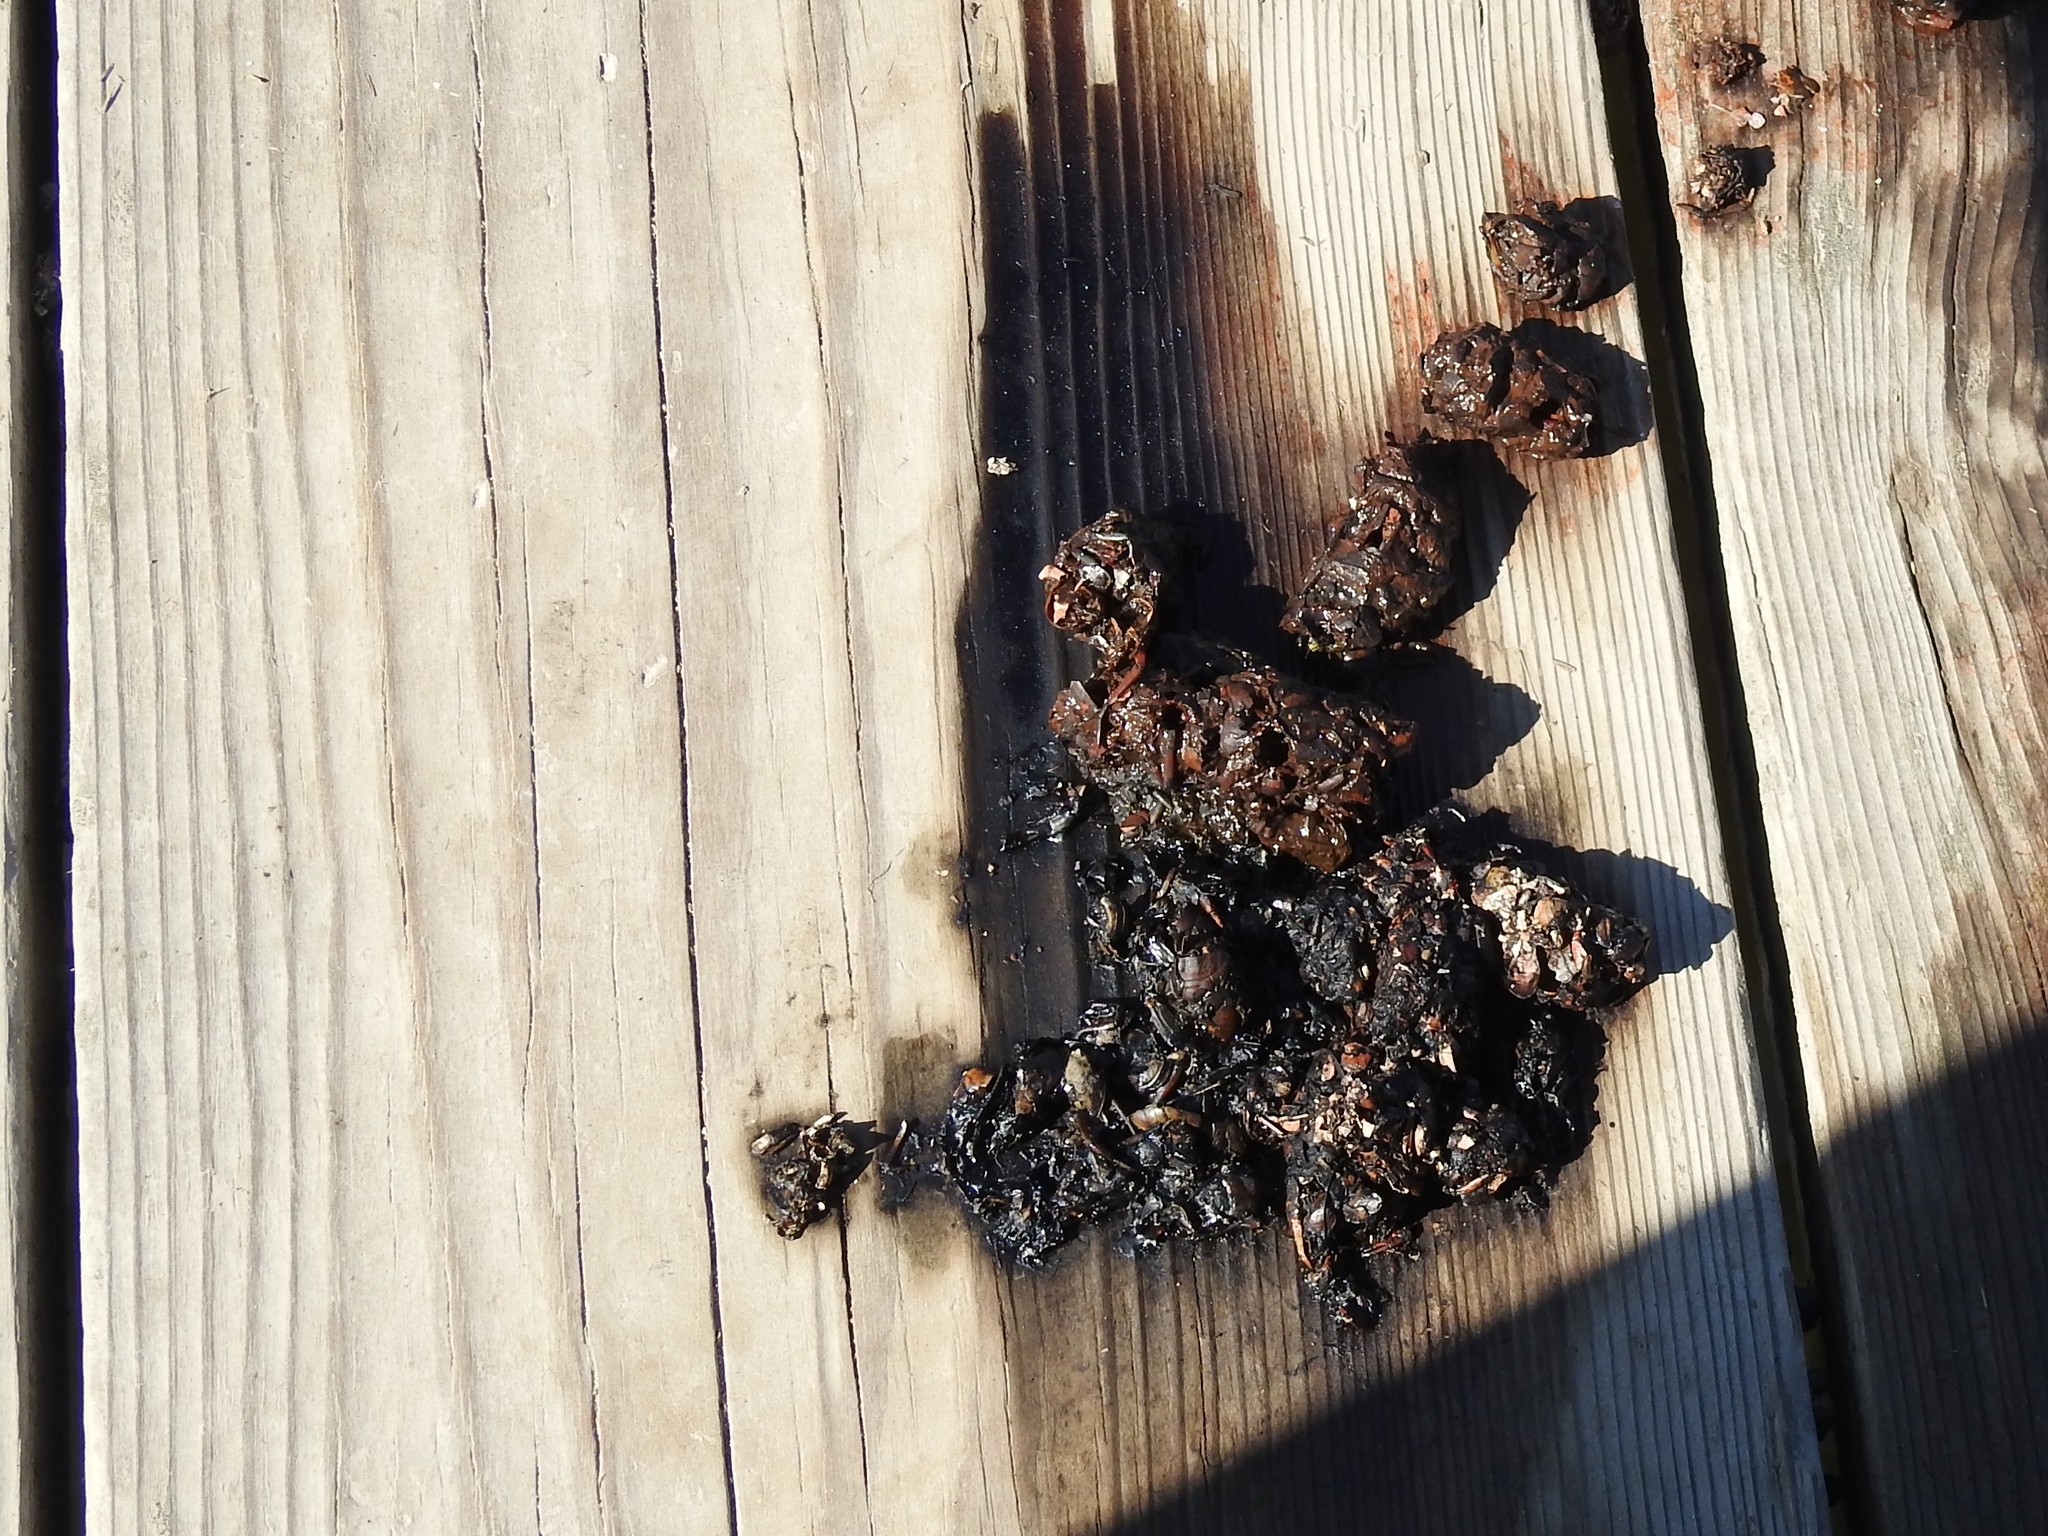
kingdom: Animalia
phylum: Chordata
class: Mammalia
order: Carnivora
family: Mustelidae
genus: Lontra
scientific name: Lontra canadensis
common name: North american river otter
